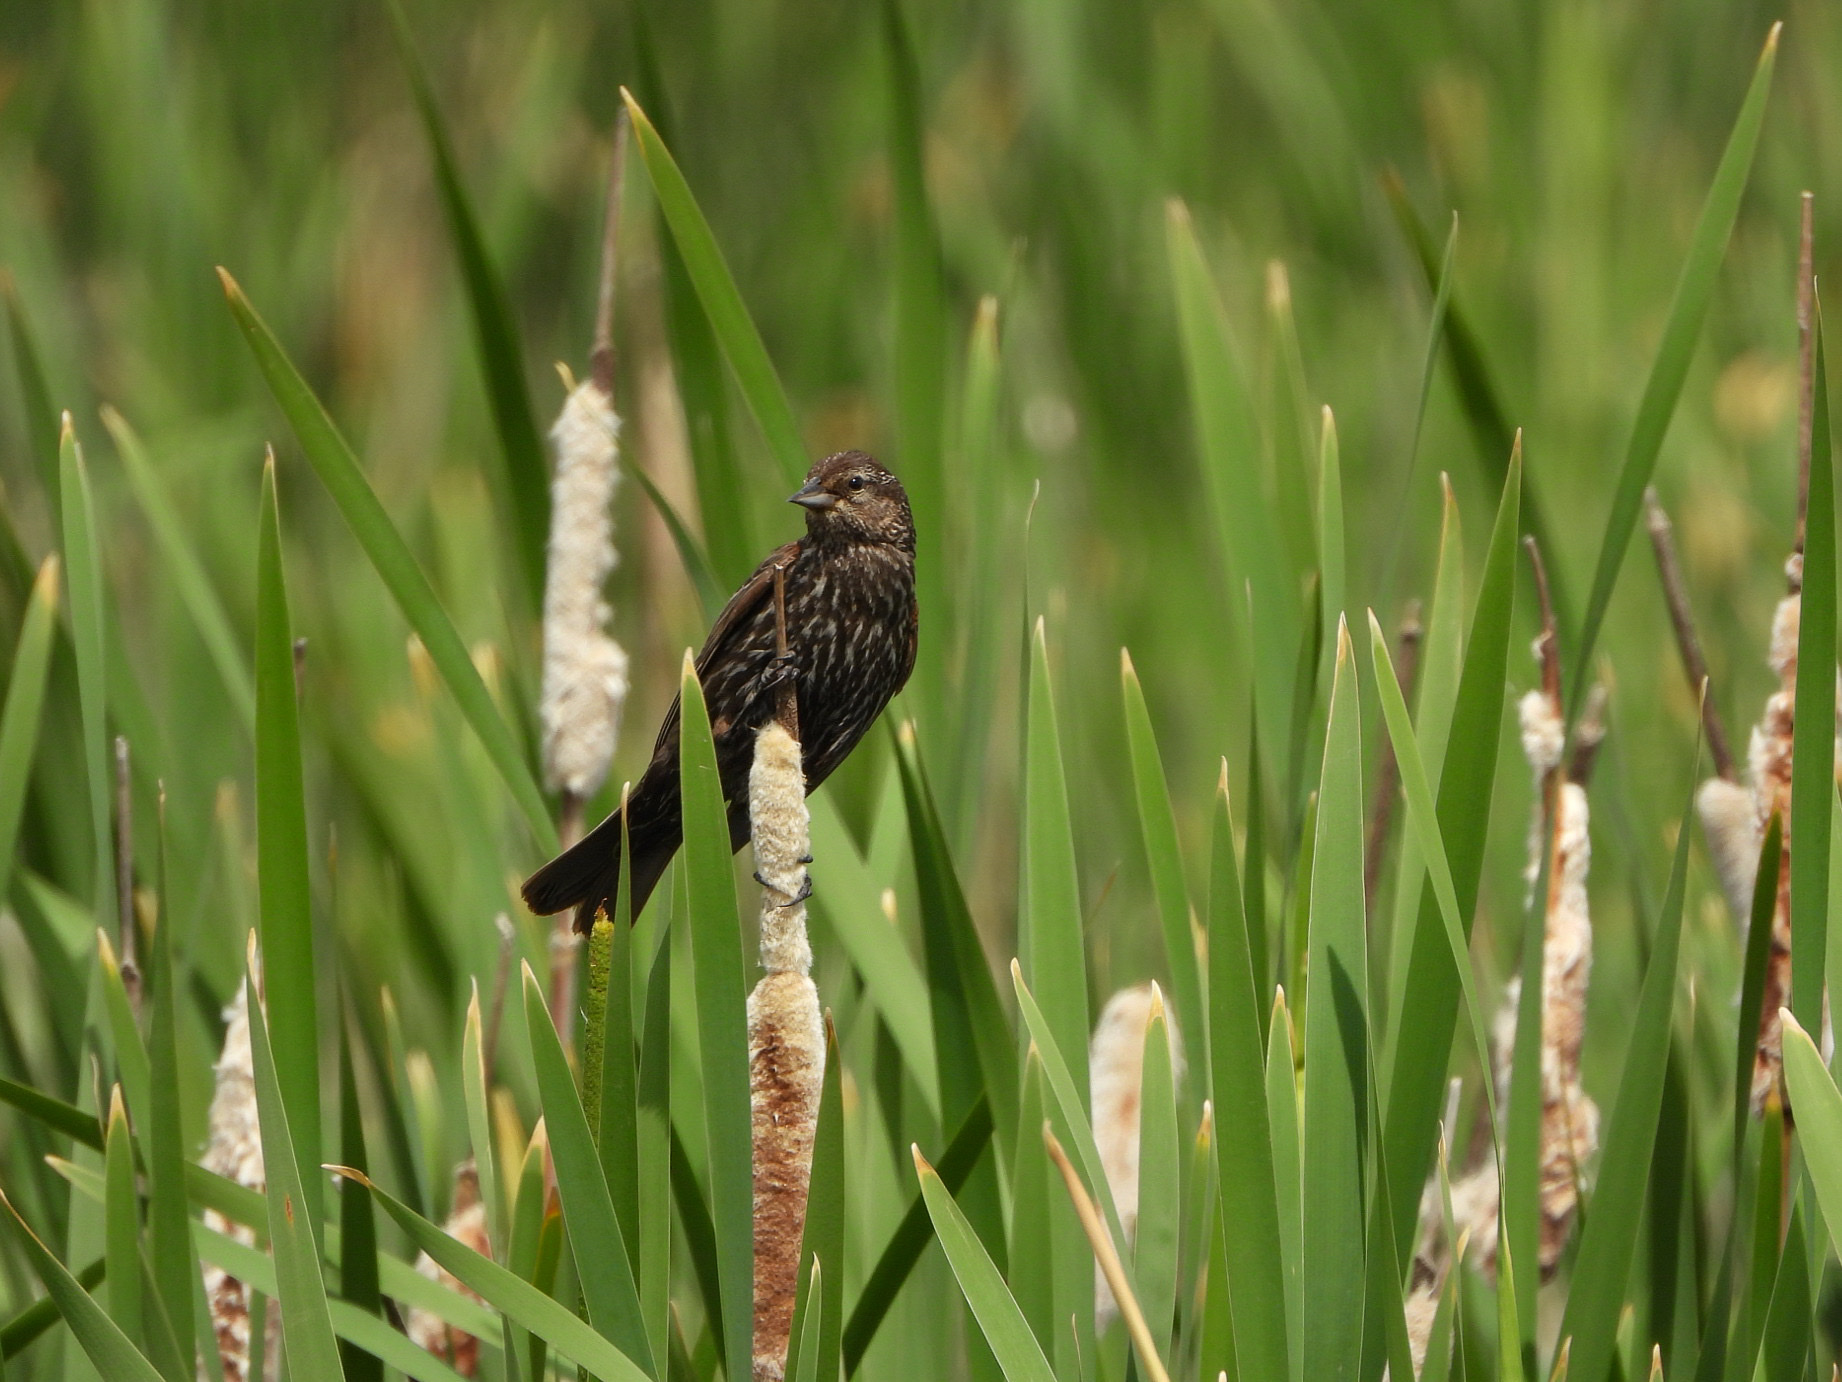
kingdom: Animalia
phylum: Chordata
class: Aves
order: Passeriformes
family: Icteridae
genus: Agelaius
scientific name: Agelaius phoeniceus
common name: Red-winged blackbird
